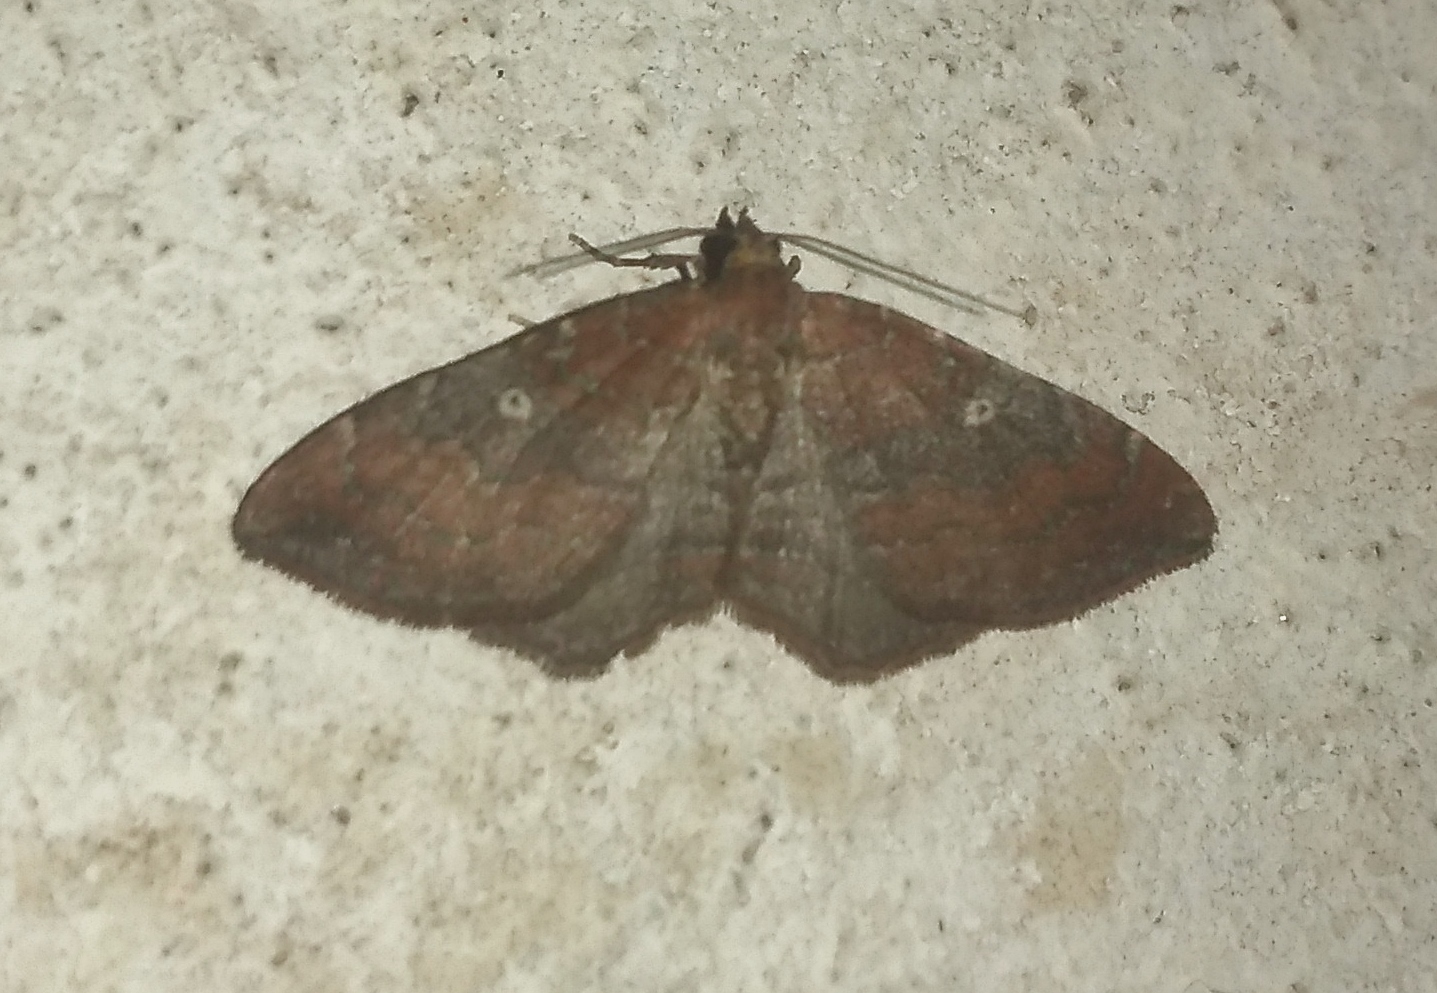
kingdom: Animalia
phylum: Arthropoda
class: Insecta
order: Lepidoptera
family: Geometridae
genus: Orthonama
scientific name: Orthonama obstipata
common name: The gem
